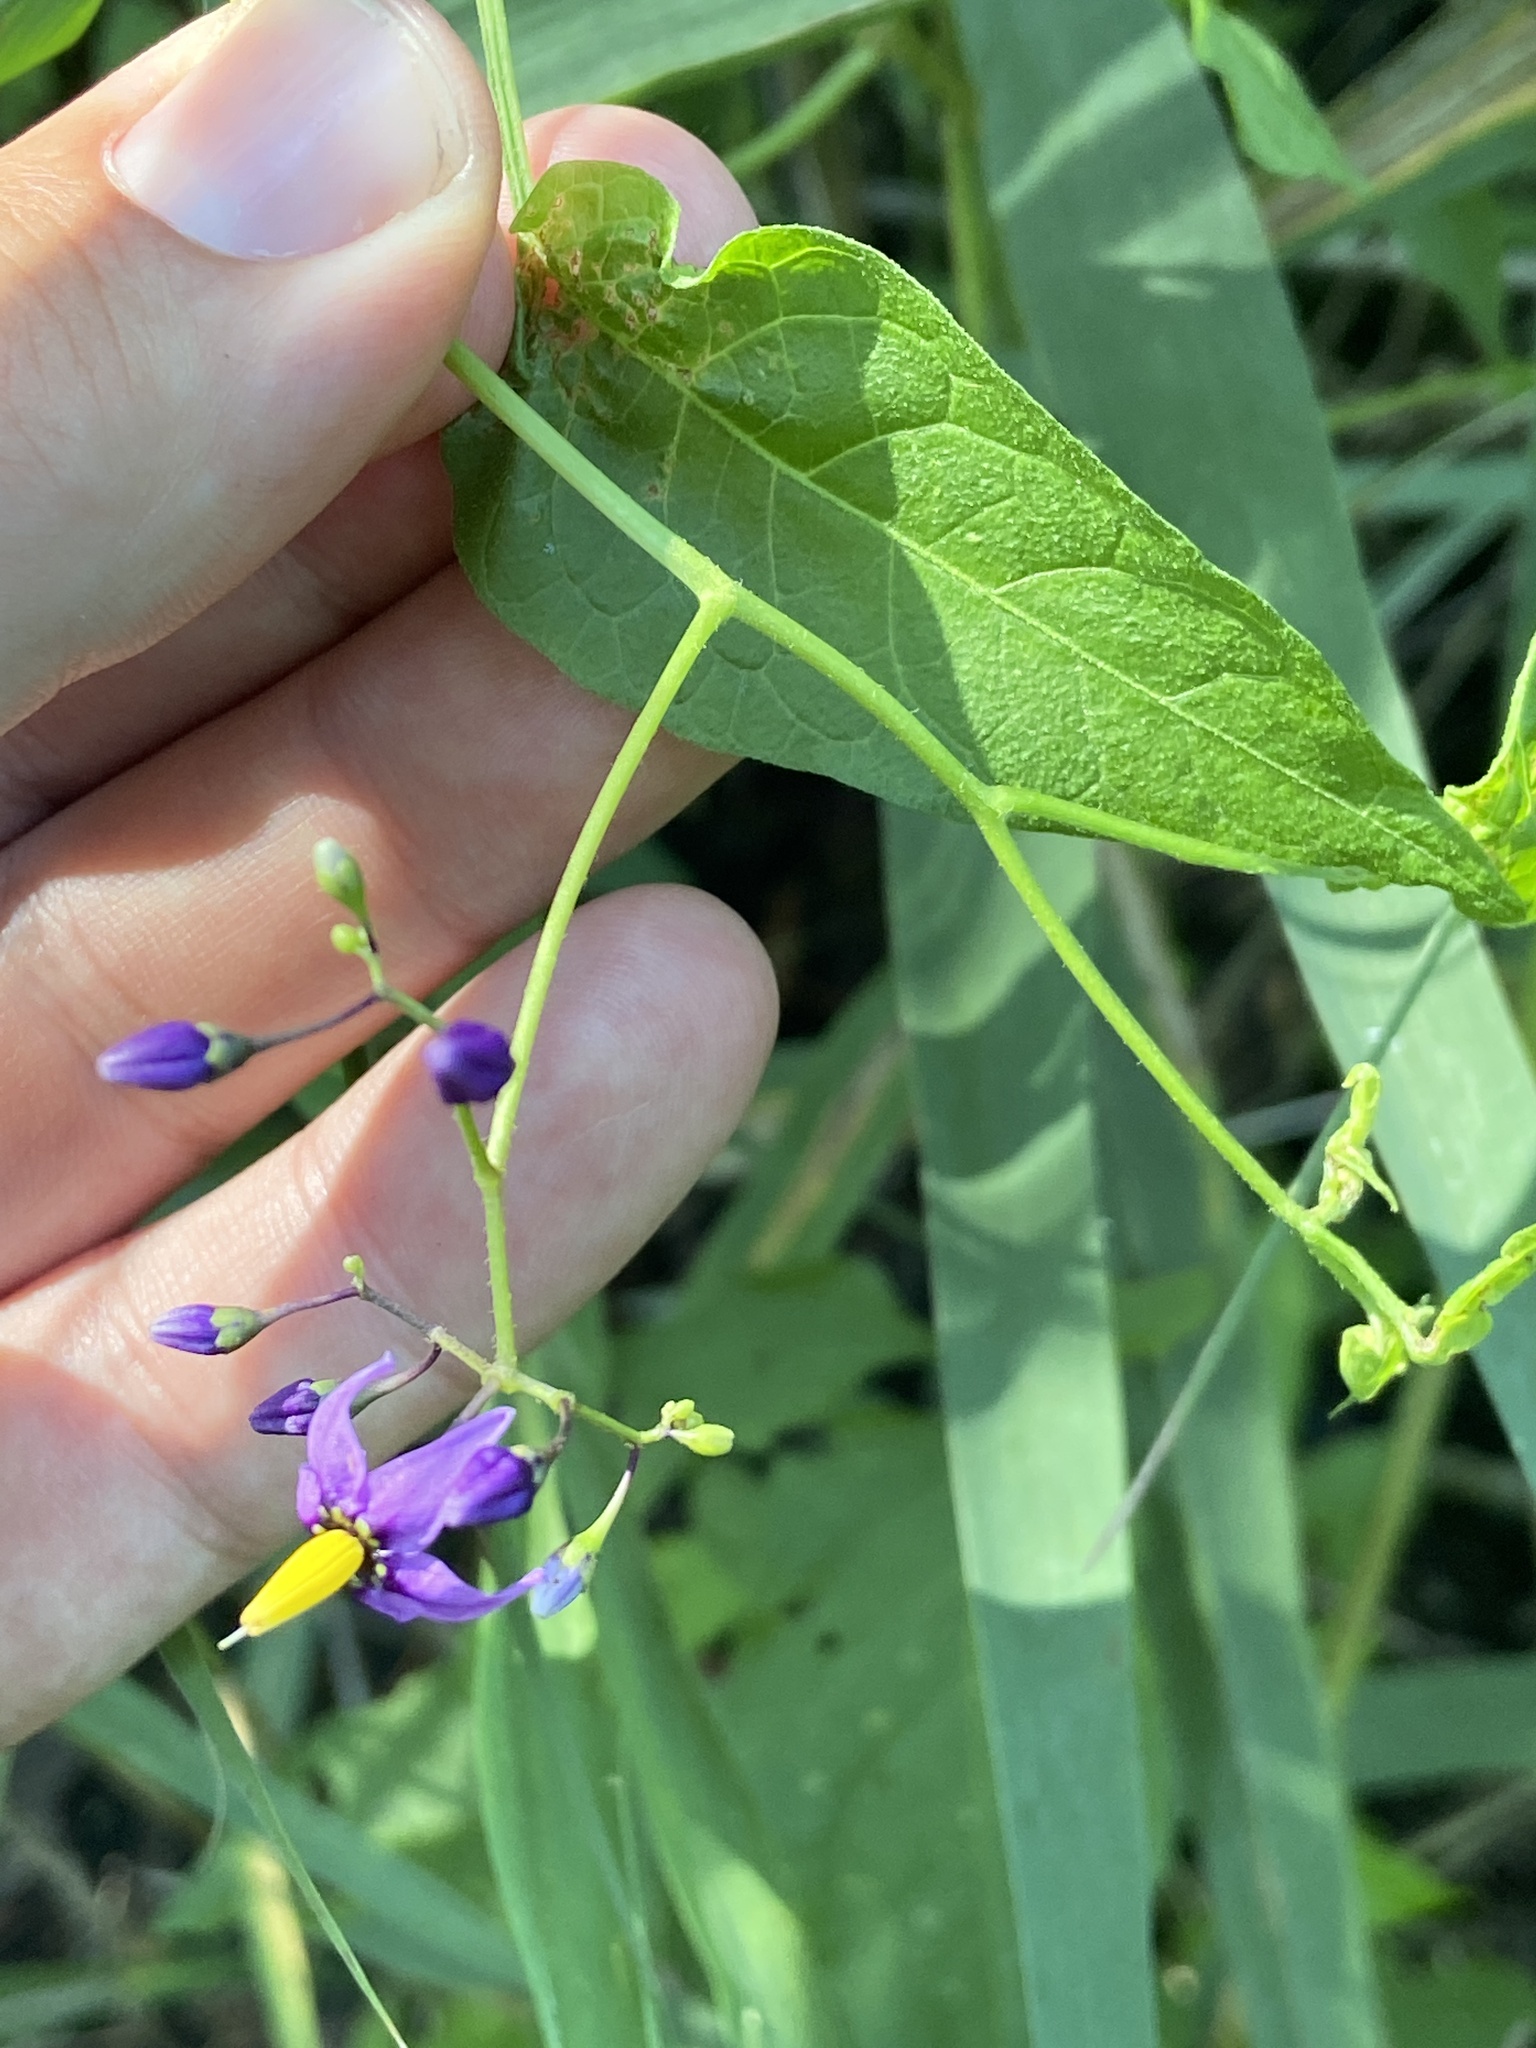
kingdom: Plantae
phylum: Tracheophyta
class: Magnoliopsida
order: Solanales
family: Solanaceae
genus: Solanum
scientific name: Solanum dulcamara
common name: Climbing nightshade
